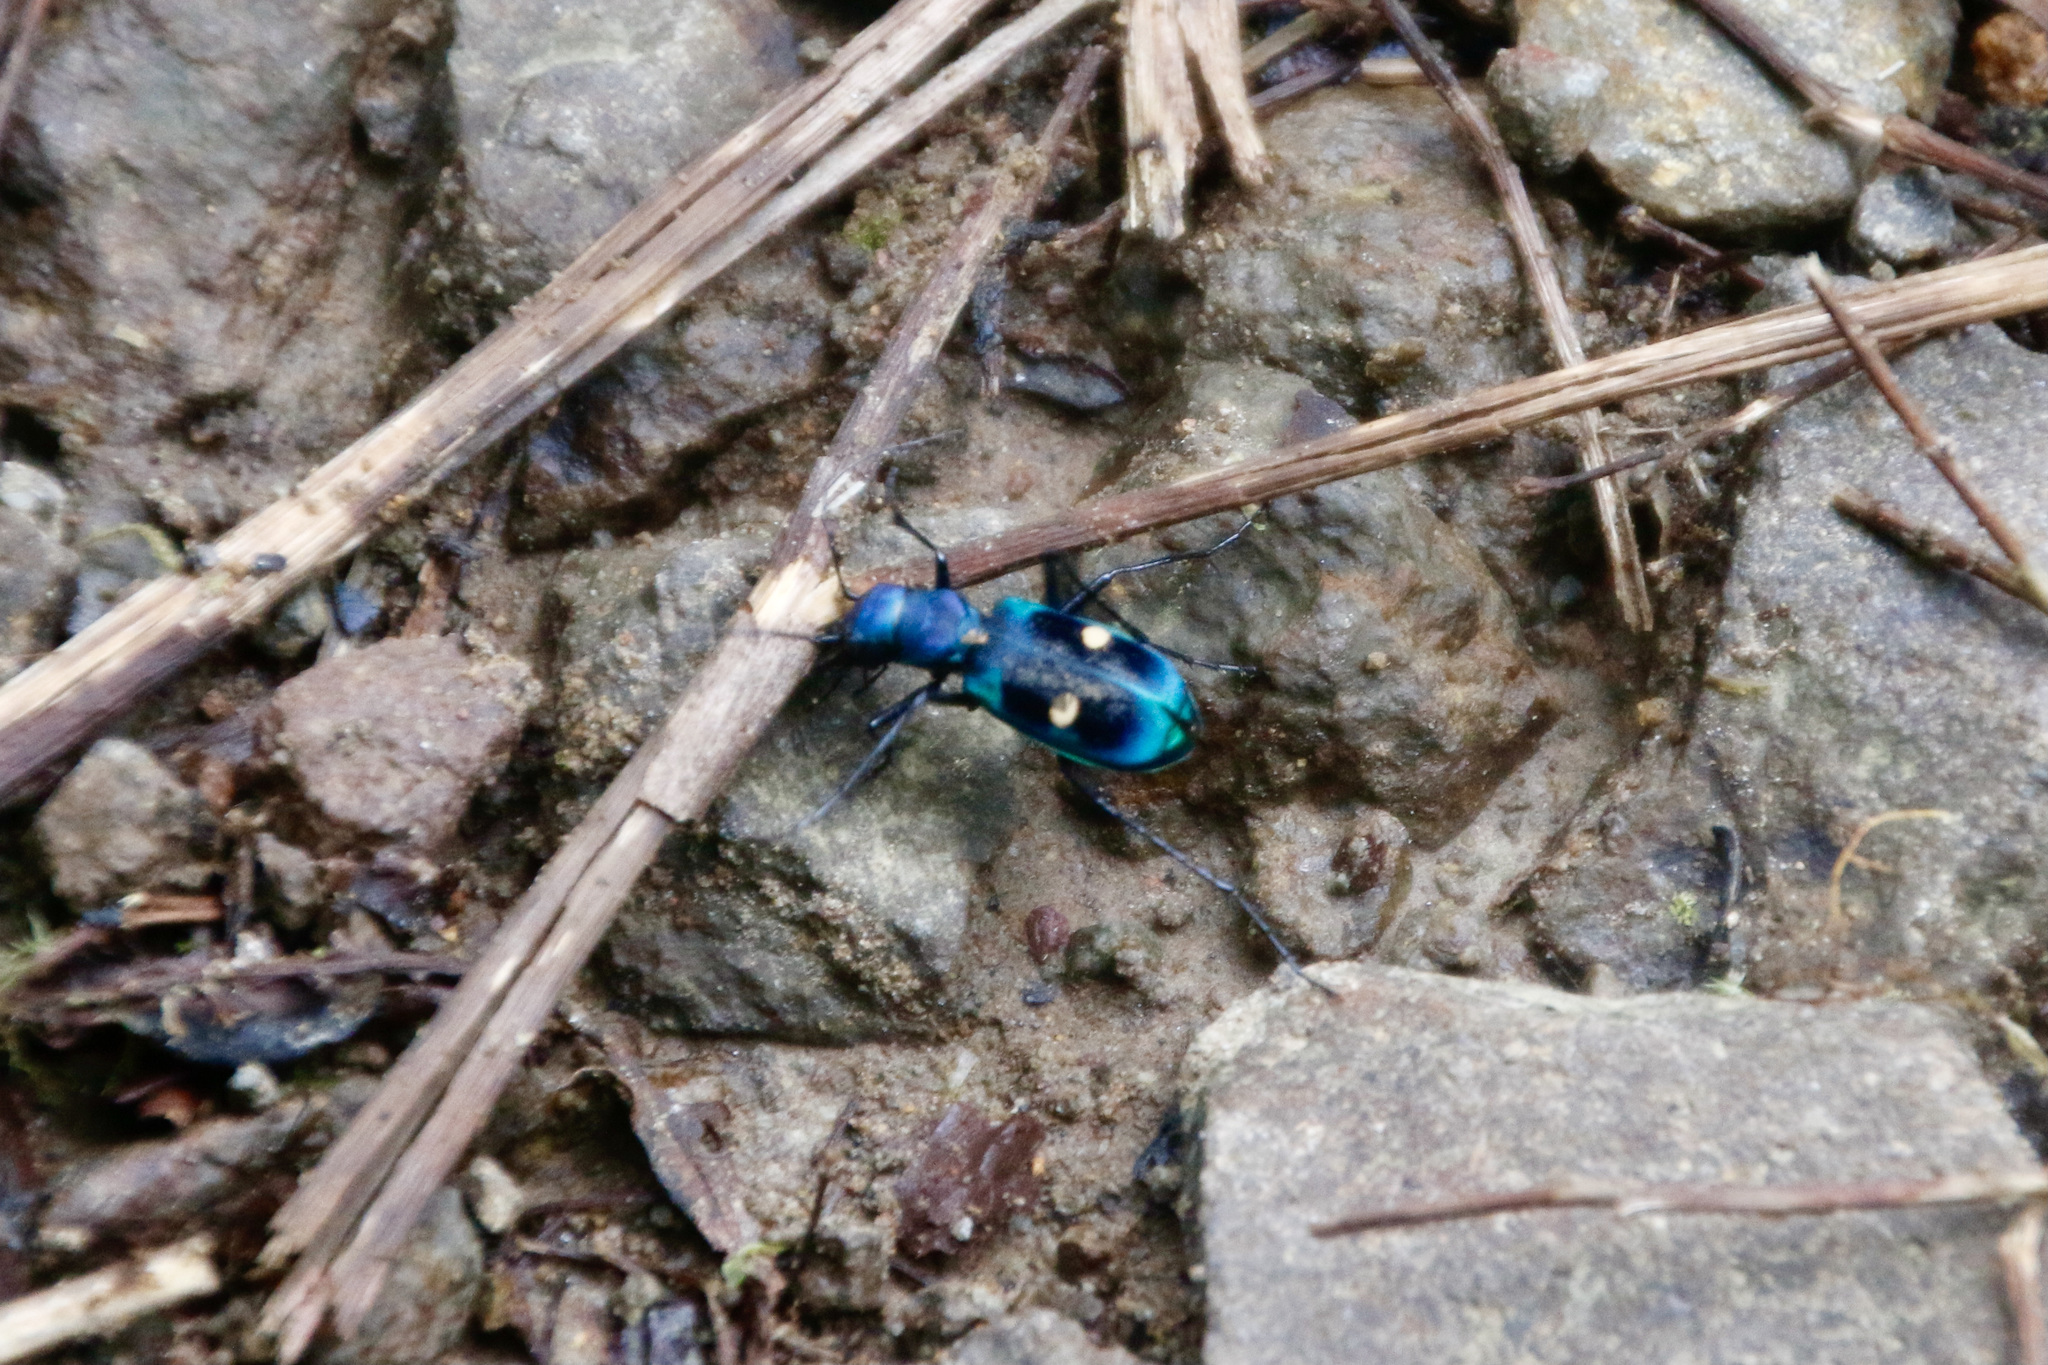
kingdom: Animalia
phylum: Arthropoda
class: Insecta
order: Coleoptera
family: Carabidae
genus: Pseudoxycheila
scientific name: Pseudoxycheila tarsalis
